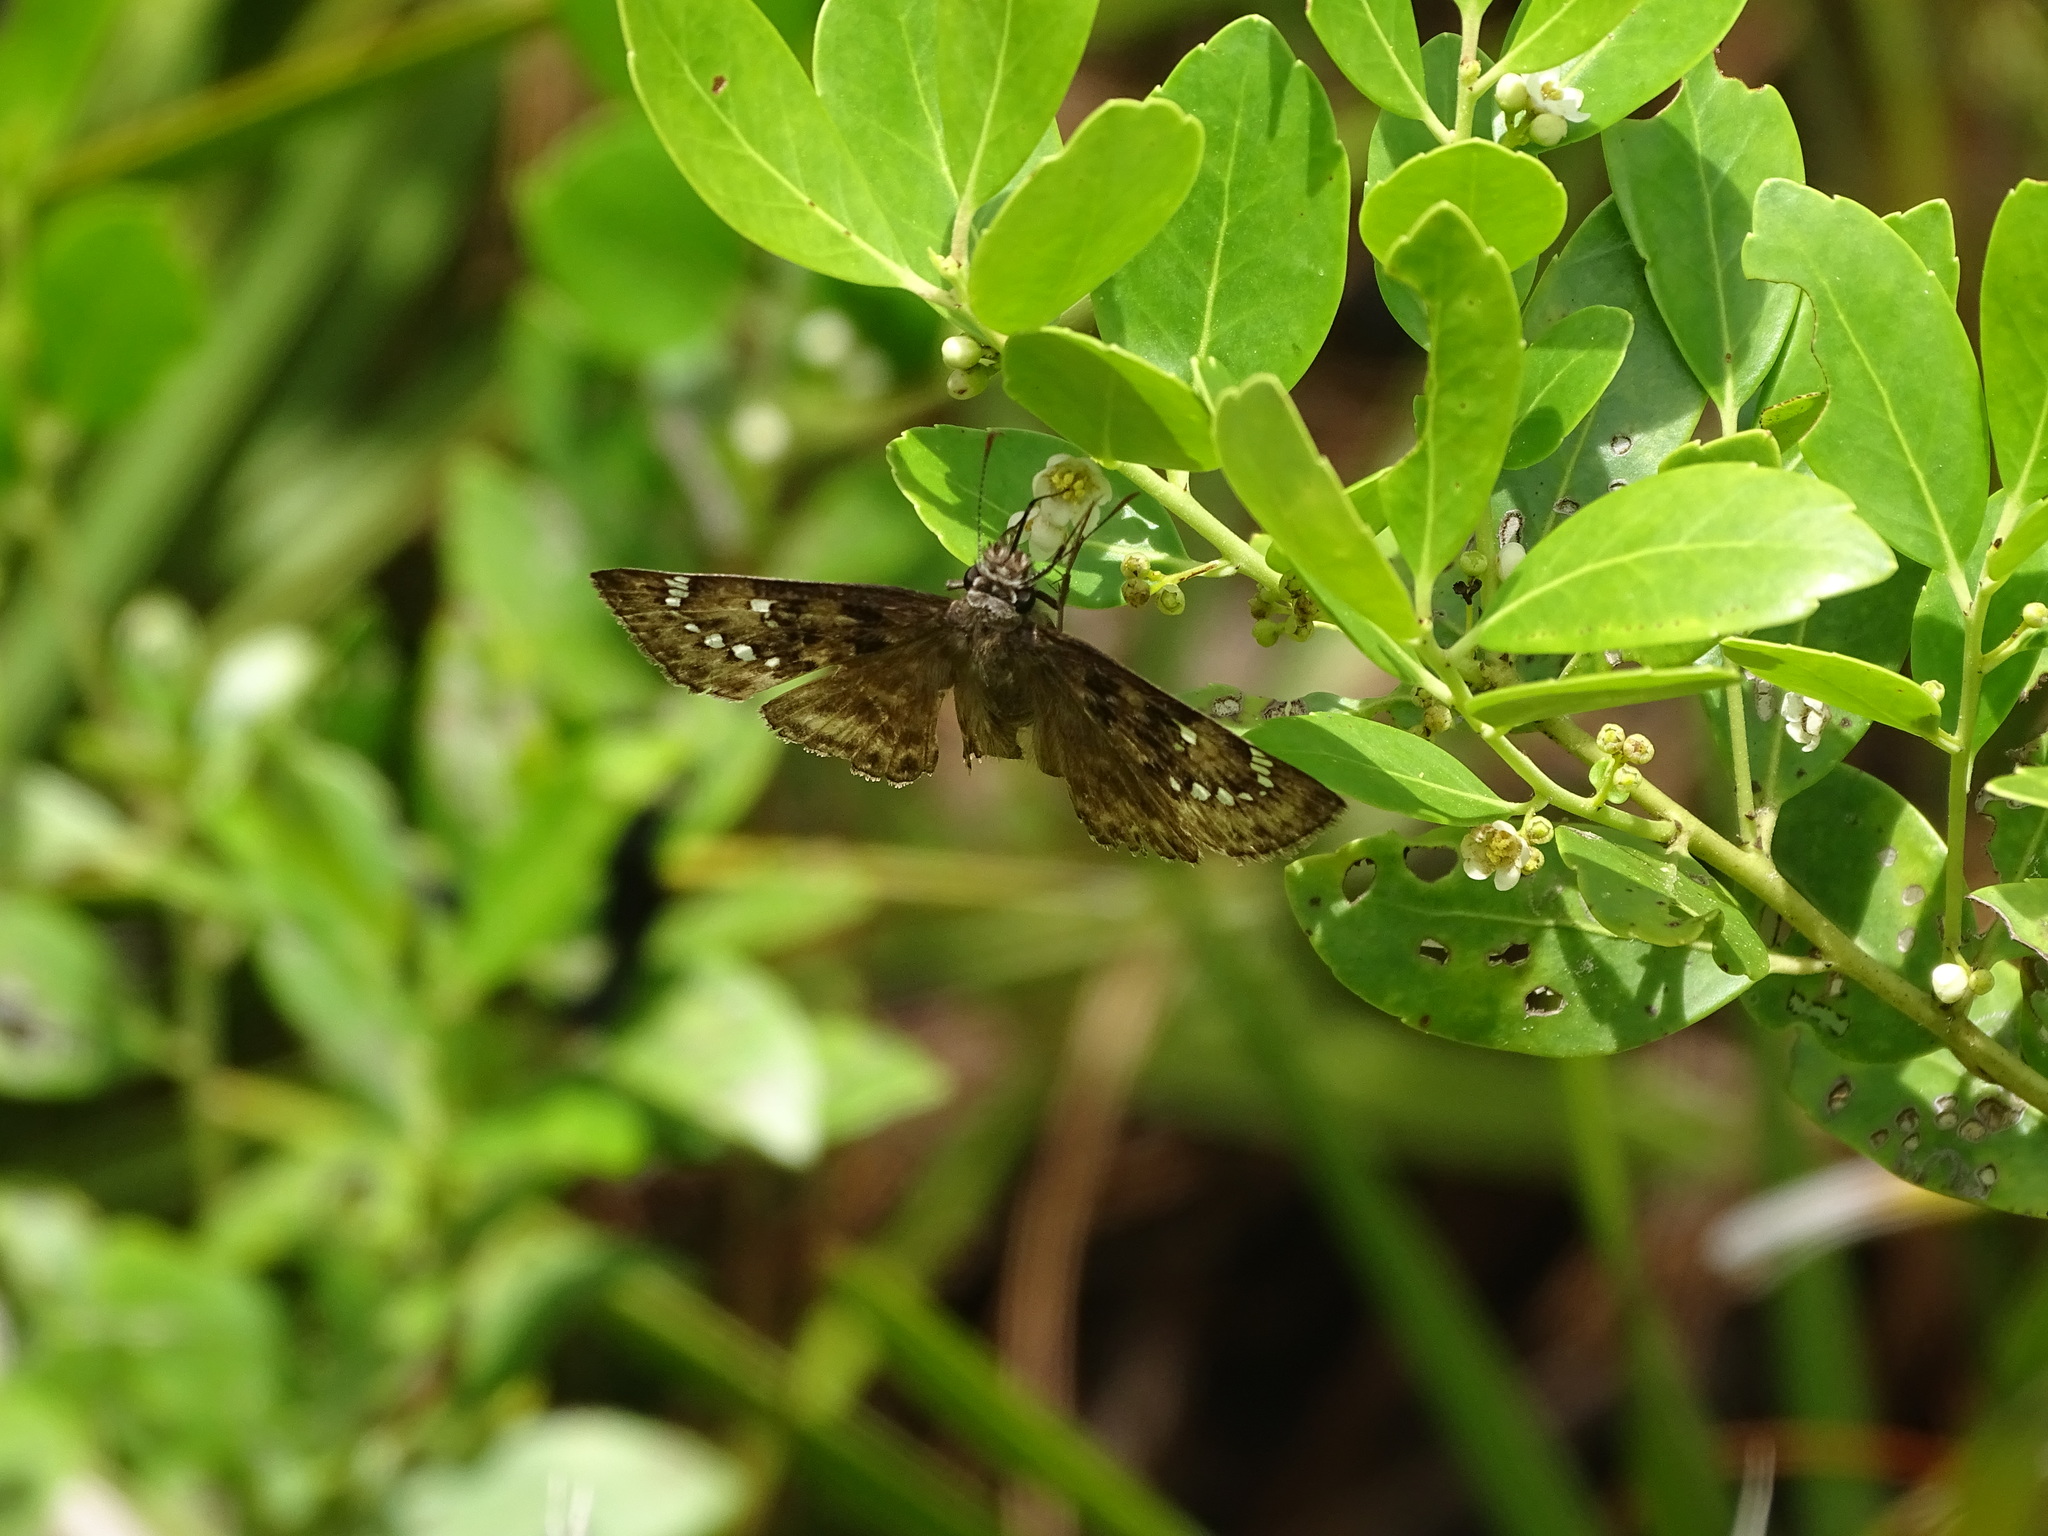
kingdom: Animalia
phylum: Arthropoda
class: Insecta
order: Lepidoptera
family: Hesperiidae
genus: Erynnis
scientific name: Erynnis horatius
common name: Horace's duskywing
